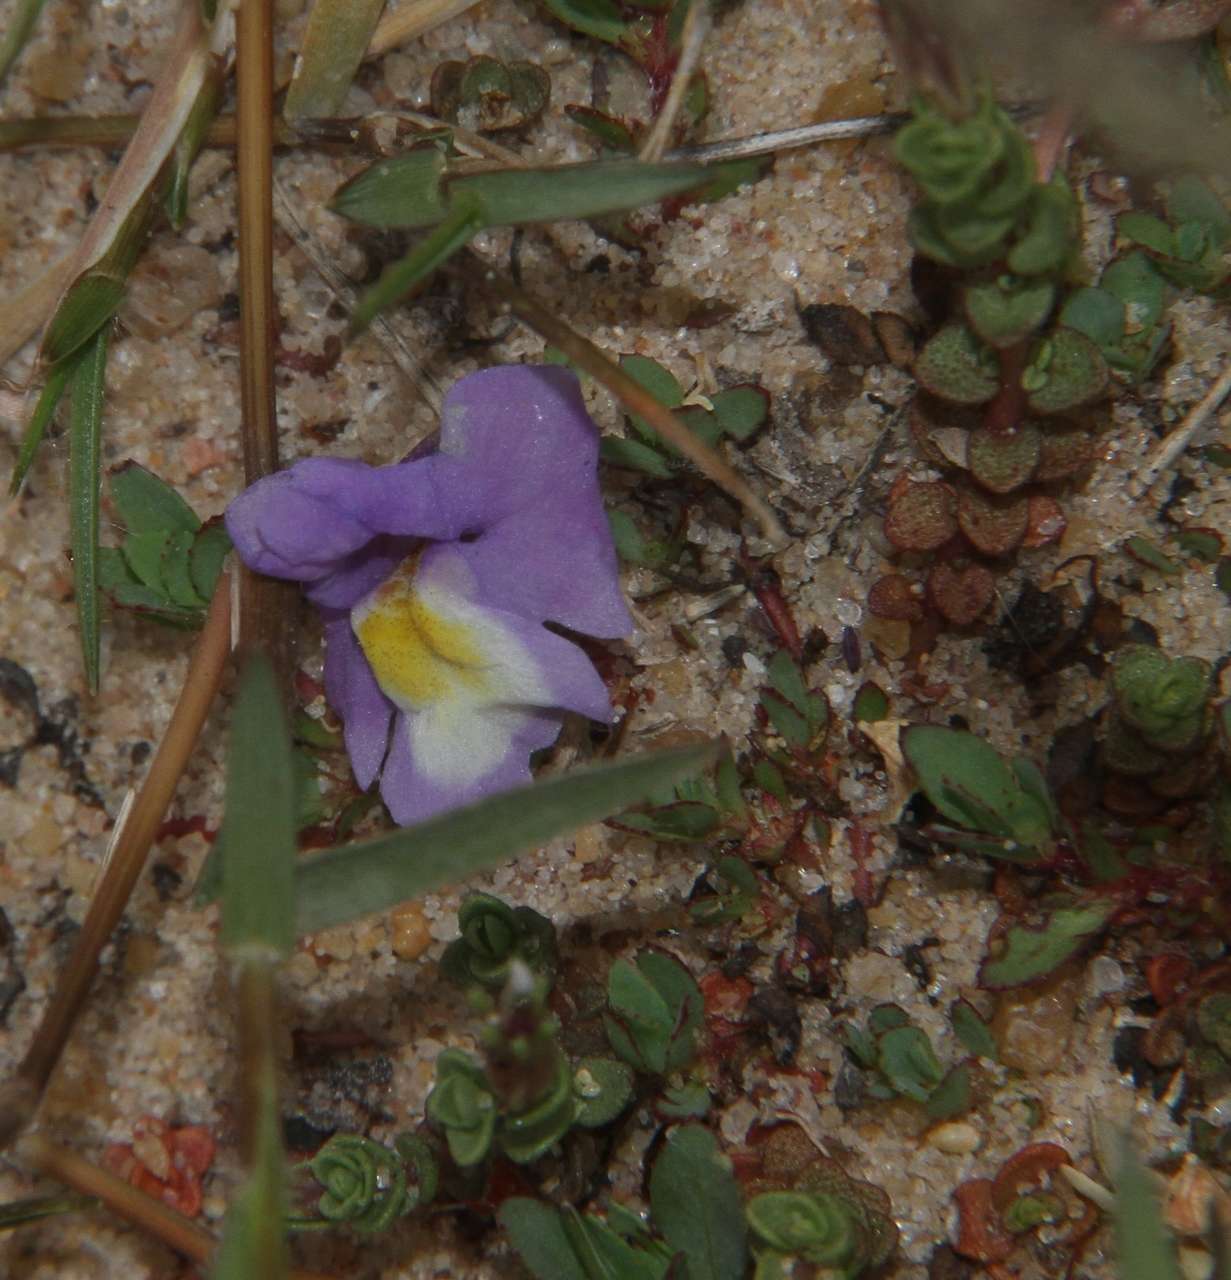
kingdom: Plantae
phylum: Tracheophyta
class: Magnoliopsida
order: Lamiales
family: Phrymaceae
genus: Thyridia
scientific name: Thyridia repens
